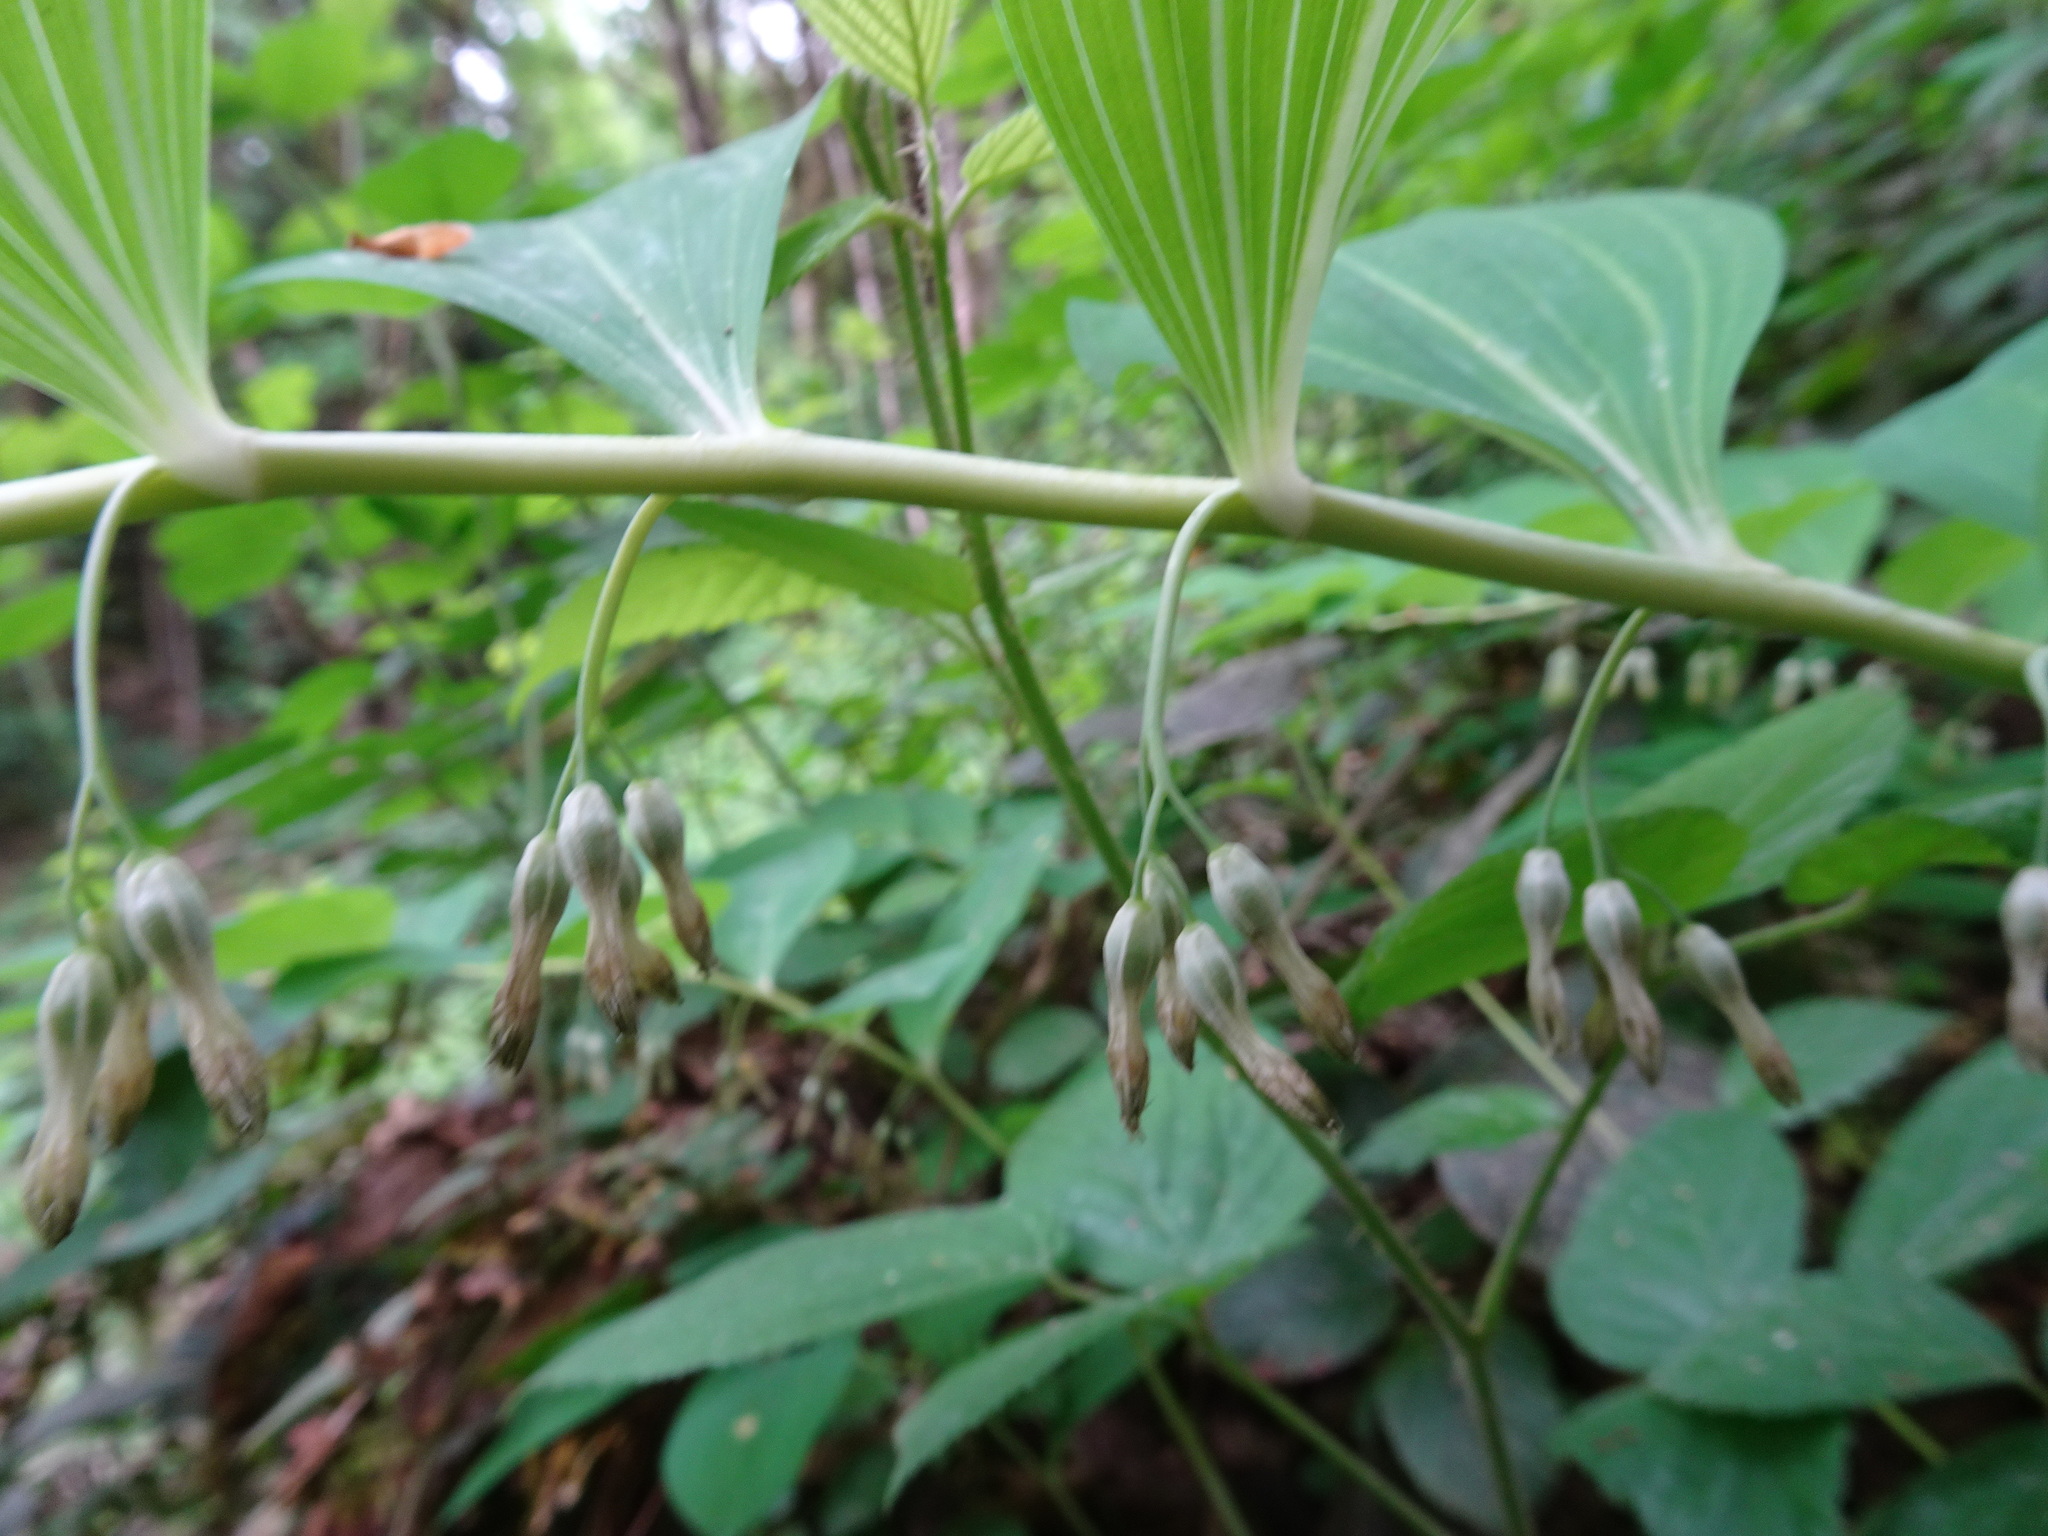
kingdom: Plantae
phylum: Tracheophyta
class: Liliopsida
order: Asparagales
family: Asparagaceae
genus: Polygonatum
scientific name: Polygonatum multiflorum
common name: Solomon's-seal
